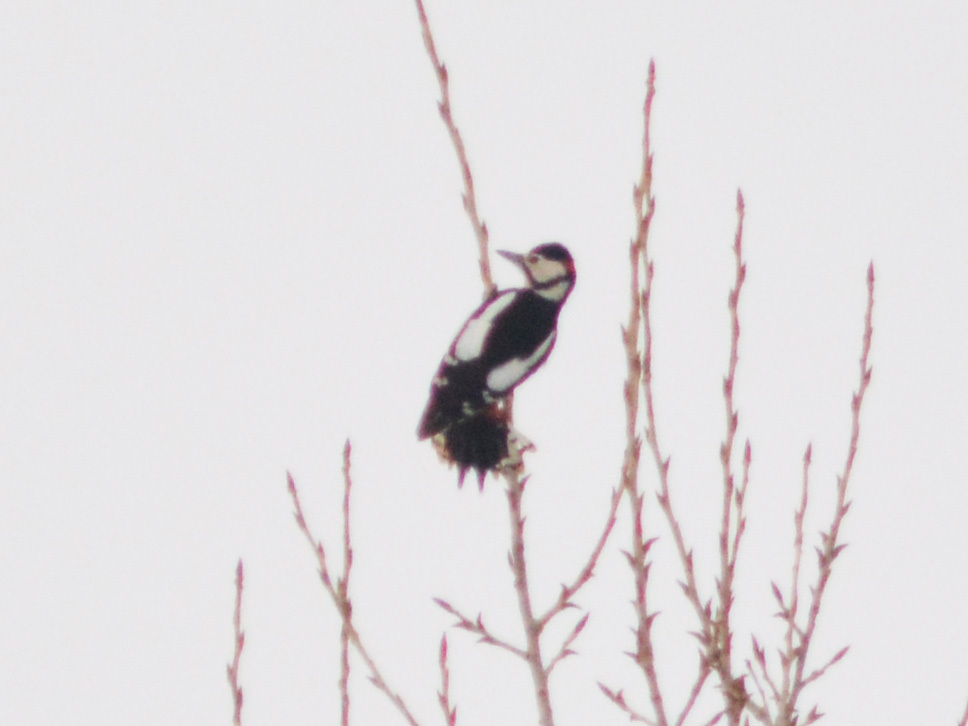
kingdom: Animalia
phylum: Chordata
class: Aves
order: Piciformes
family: Picidae
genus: Dendrocopos
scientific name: Dendrocopos major
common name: Great spotted woodpecker
